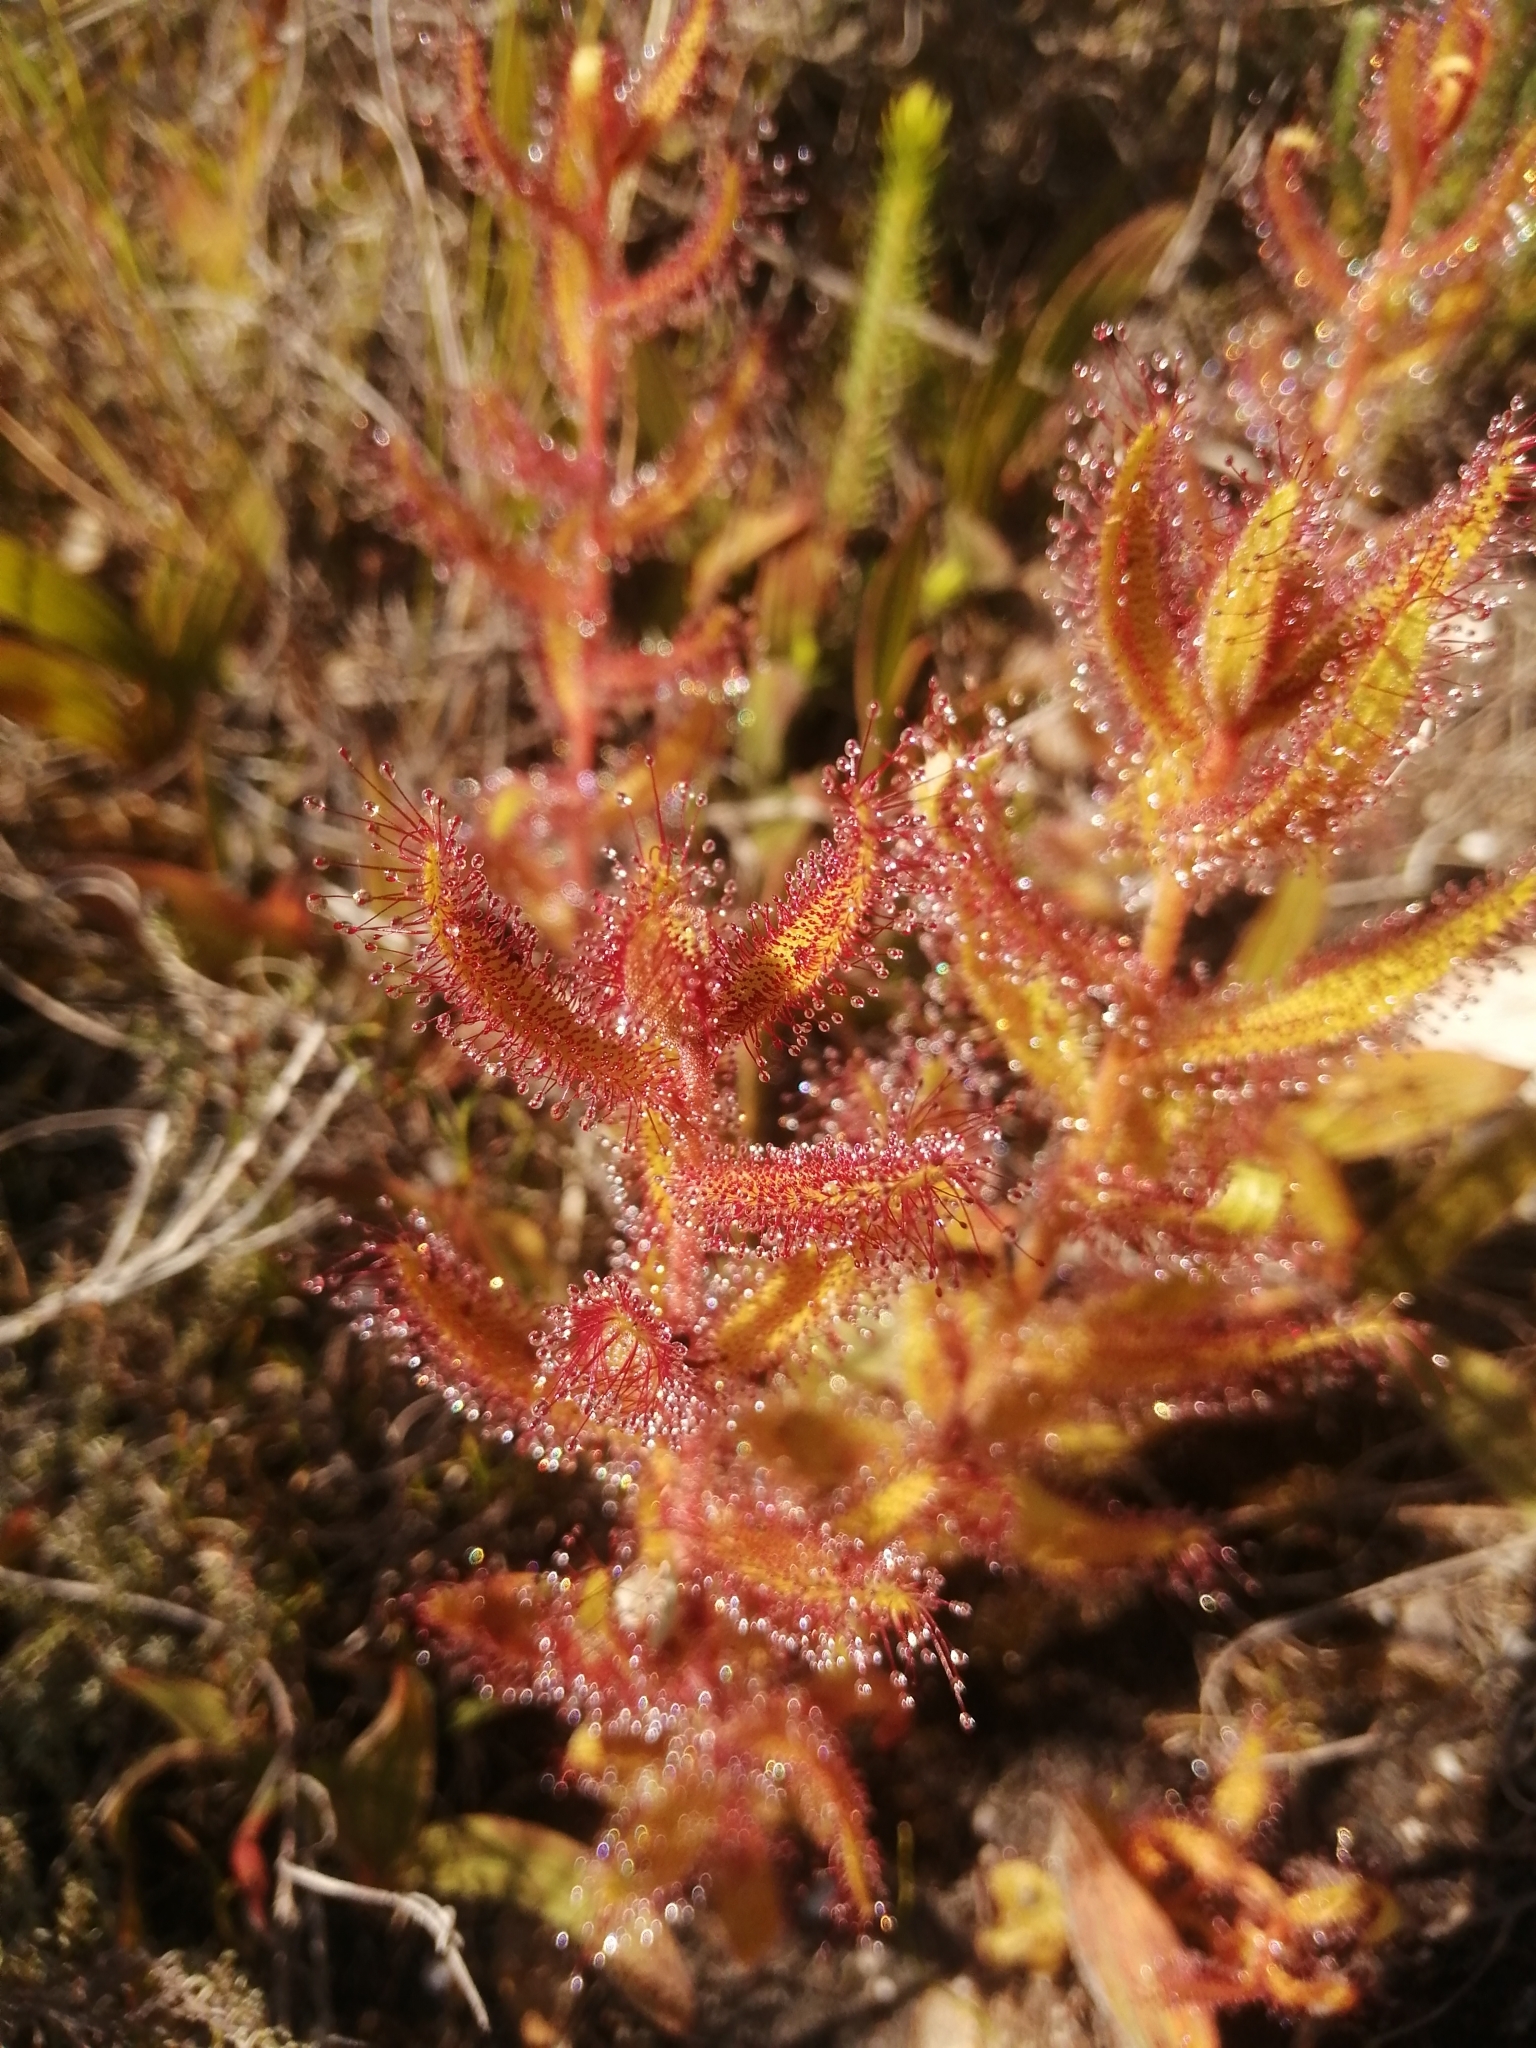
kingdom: Plantae
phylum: Tracheophyta
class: Magnoliopsida
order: Caryophyllales
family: Droseraceae
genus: Drosera
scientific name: Drosera cistiflora
